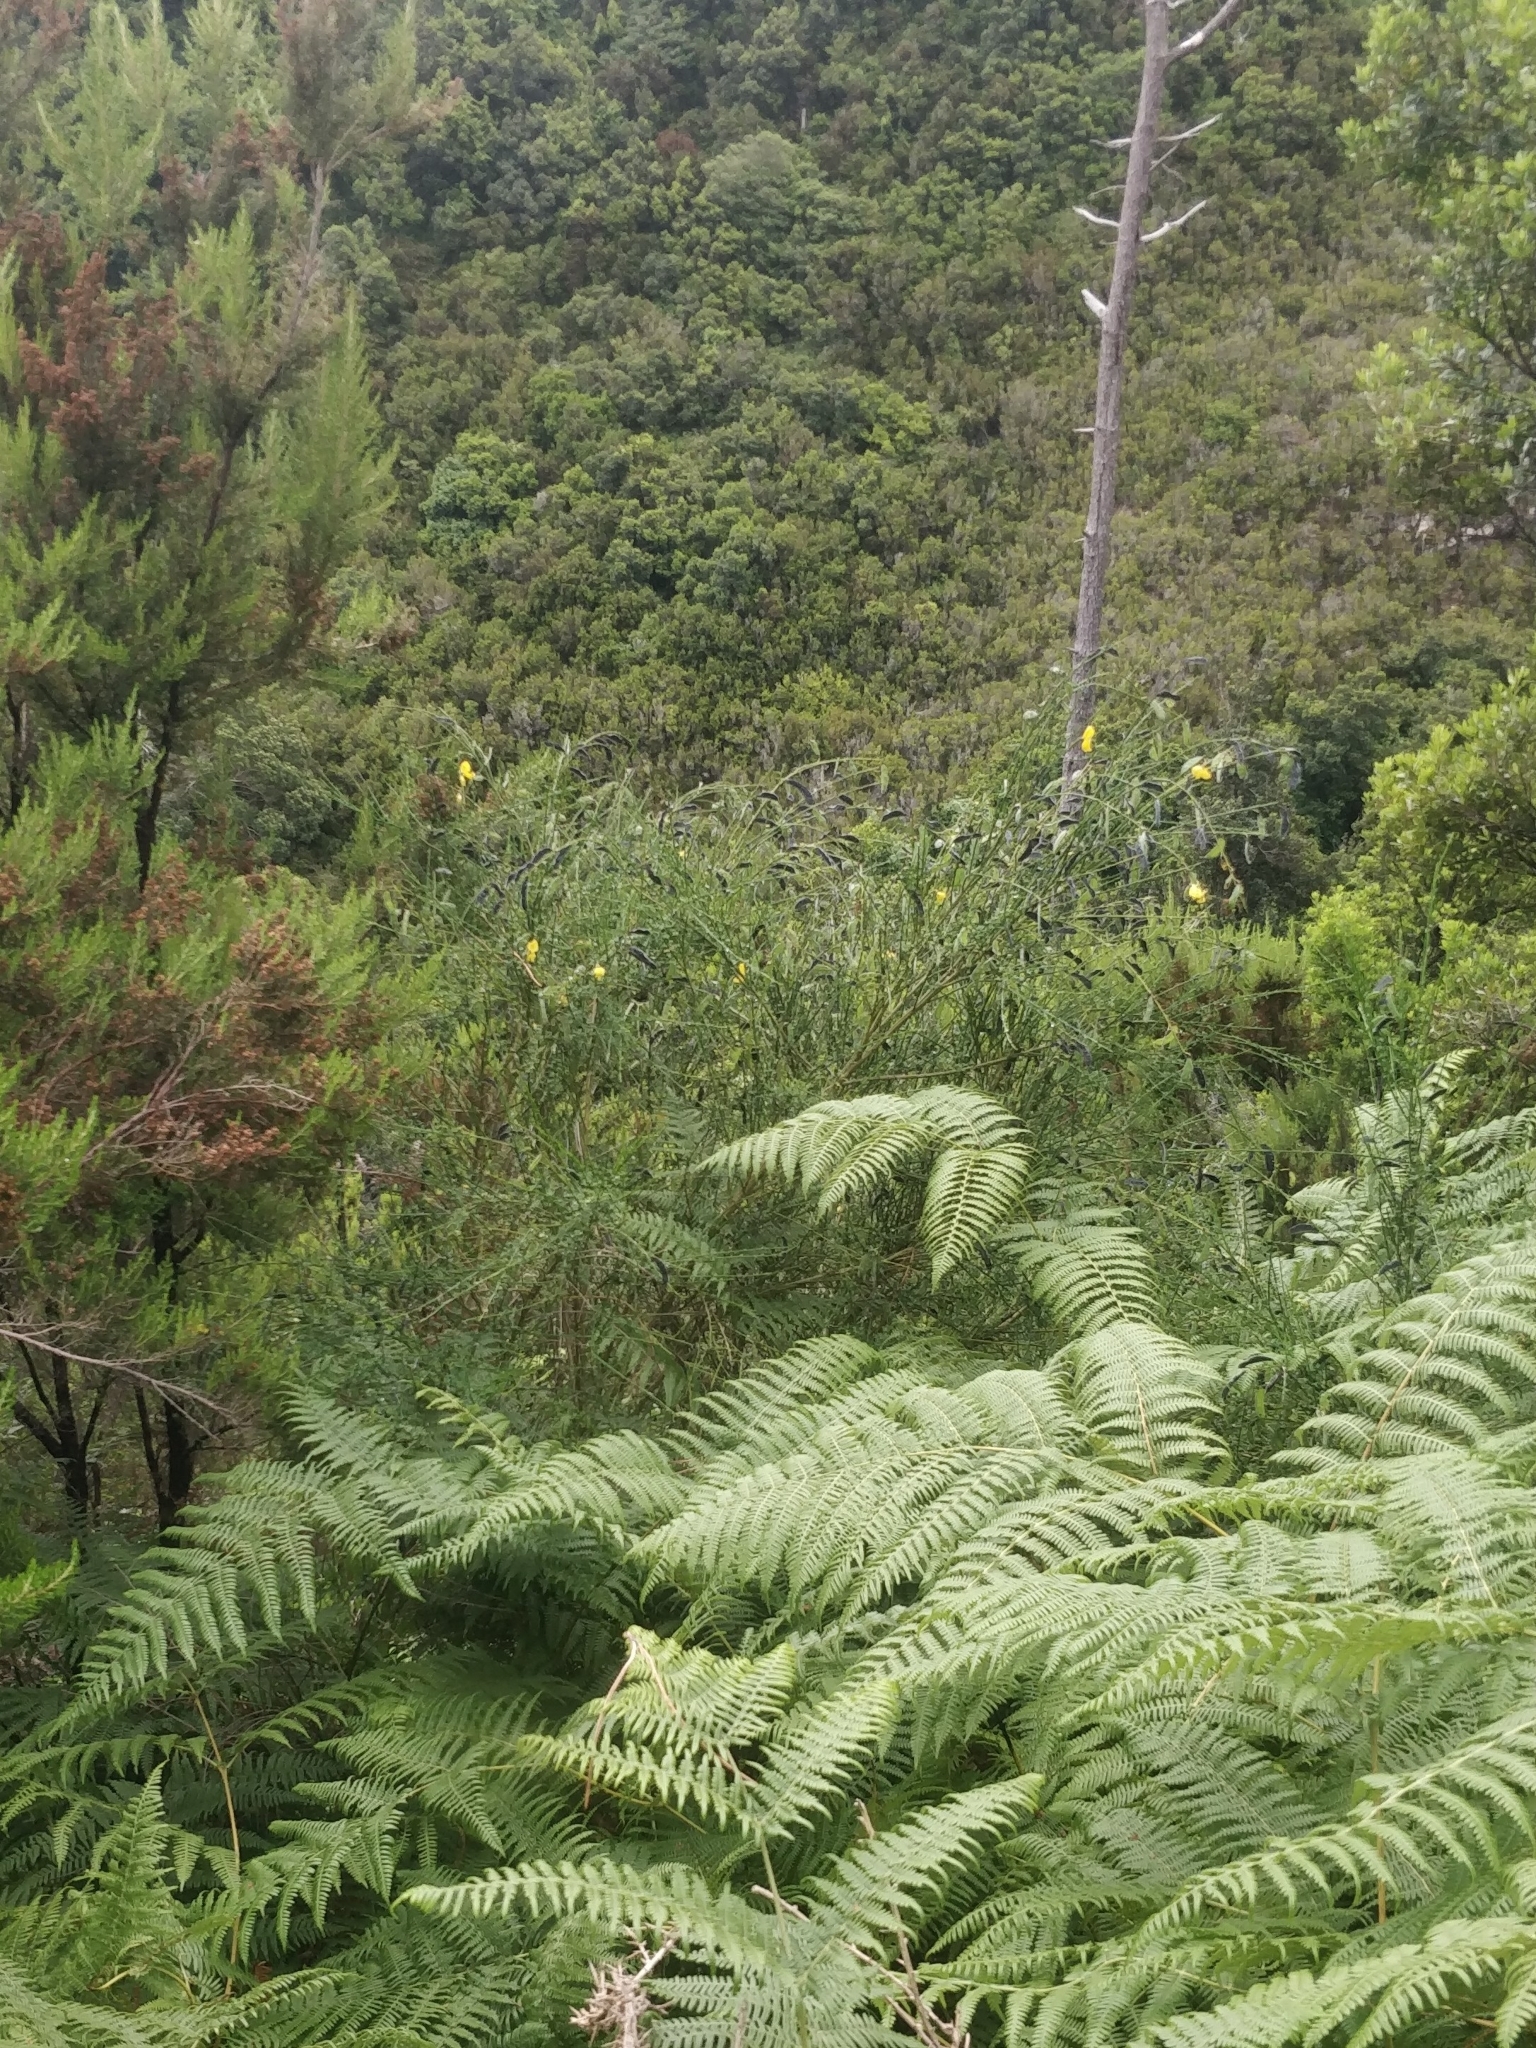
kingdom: Plantae
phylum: Tracheophyta
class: Magnoliopsida
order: Fabales
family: Fabaceae
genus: Cytisus
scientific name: Cytisus scoparius
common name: Scotch broom
